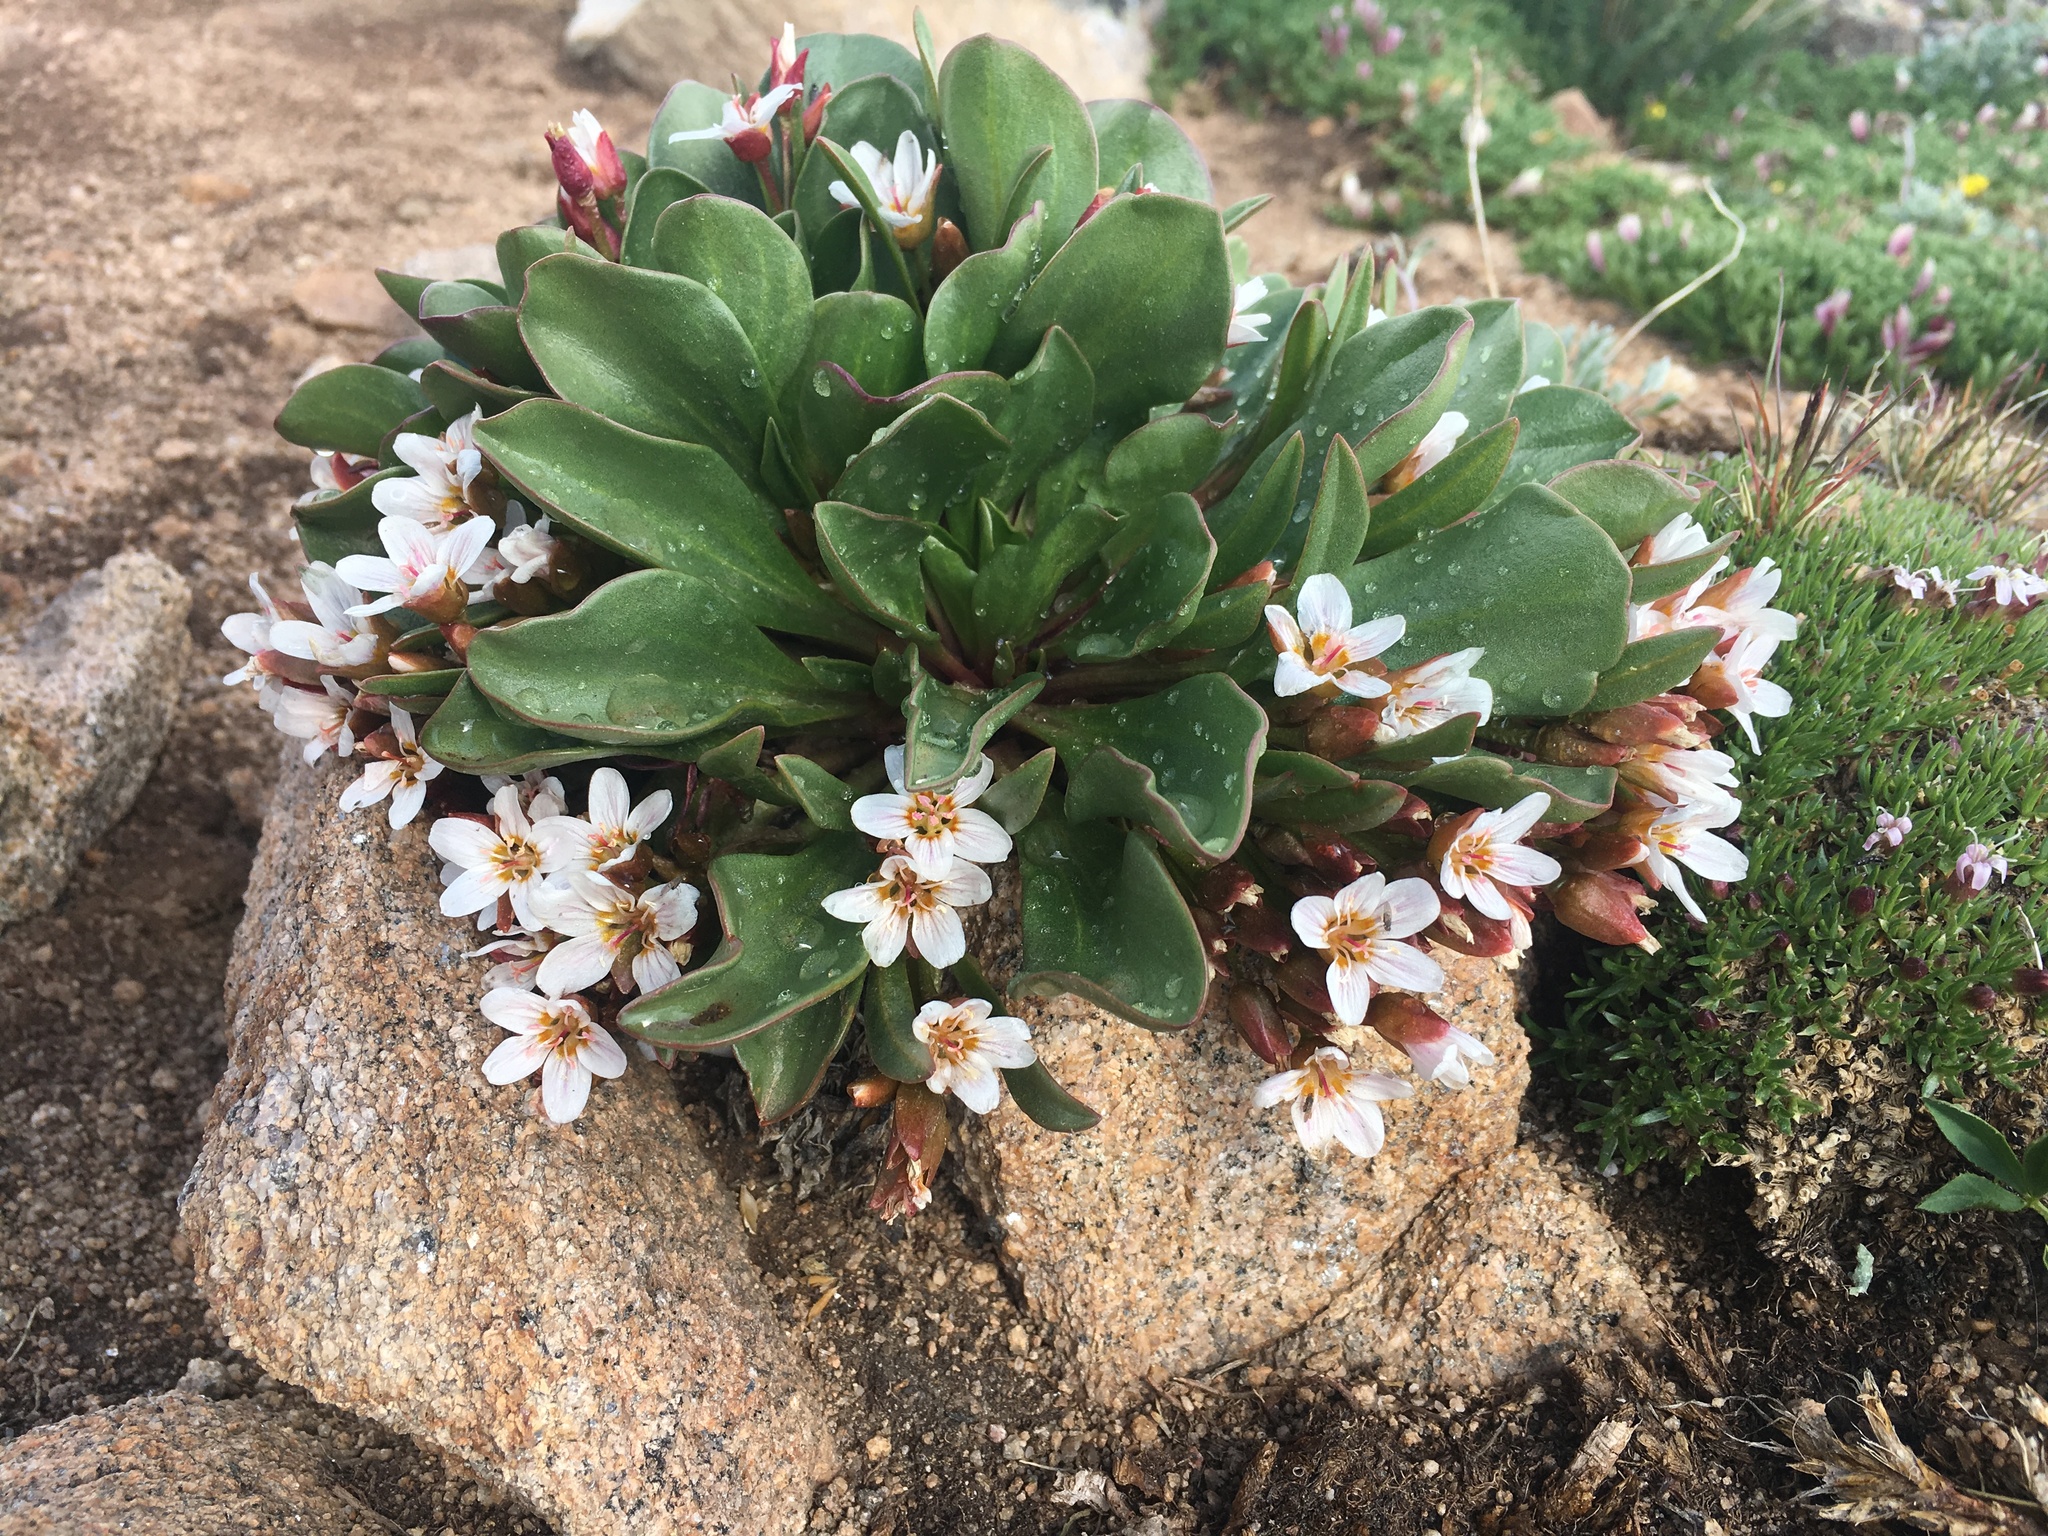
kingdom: Plantae
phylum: Tracheophyta
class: Magnoliopsida
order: Caryophyllales
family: Montiaceae
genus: Claytonia
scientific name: Claytonia megarhiza
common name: Alpine spring beauty
